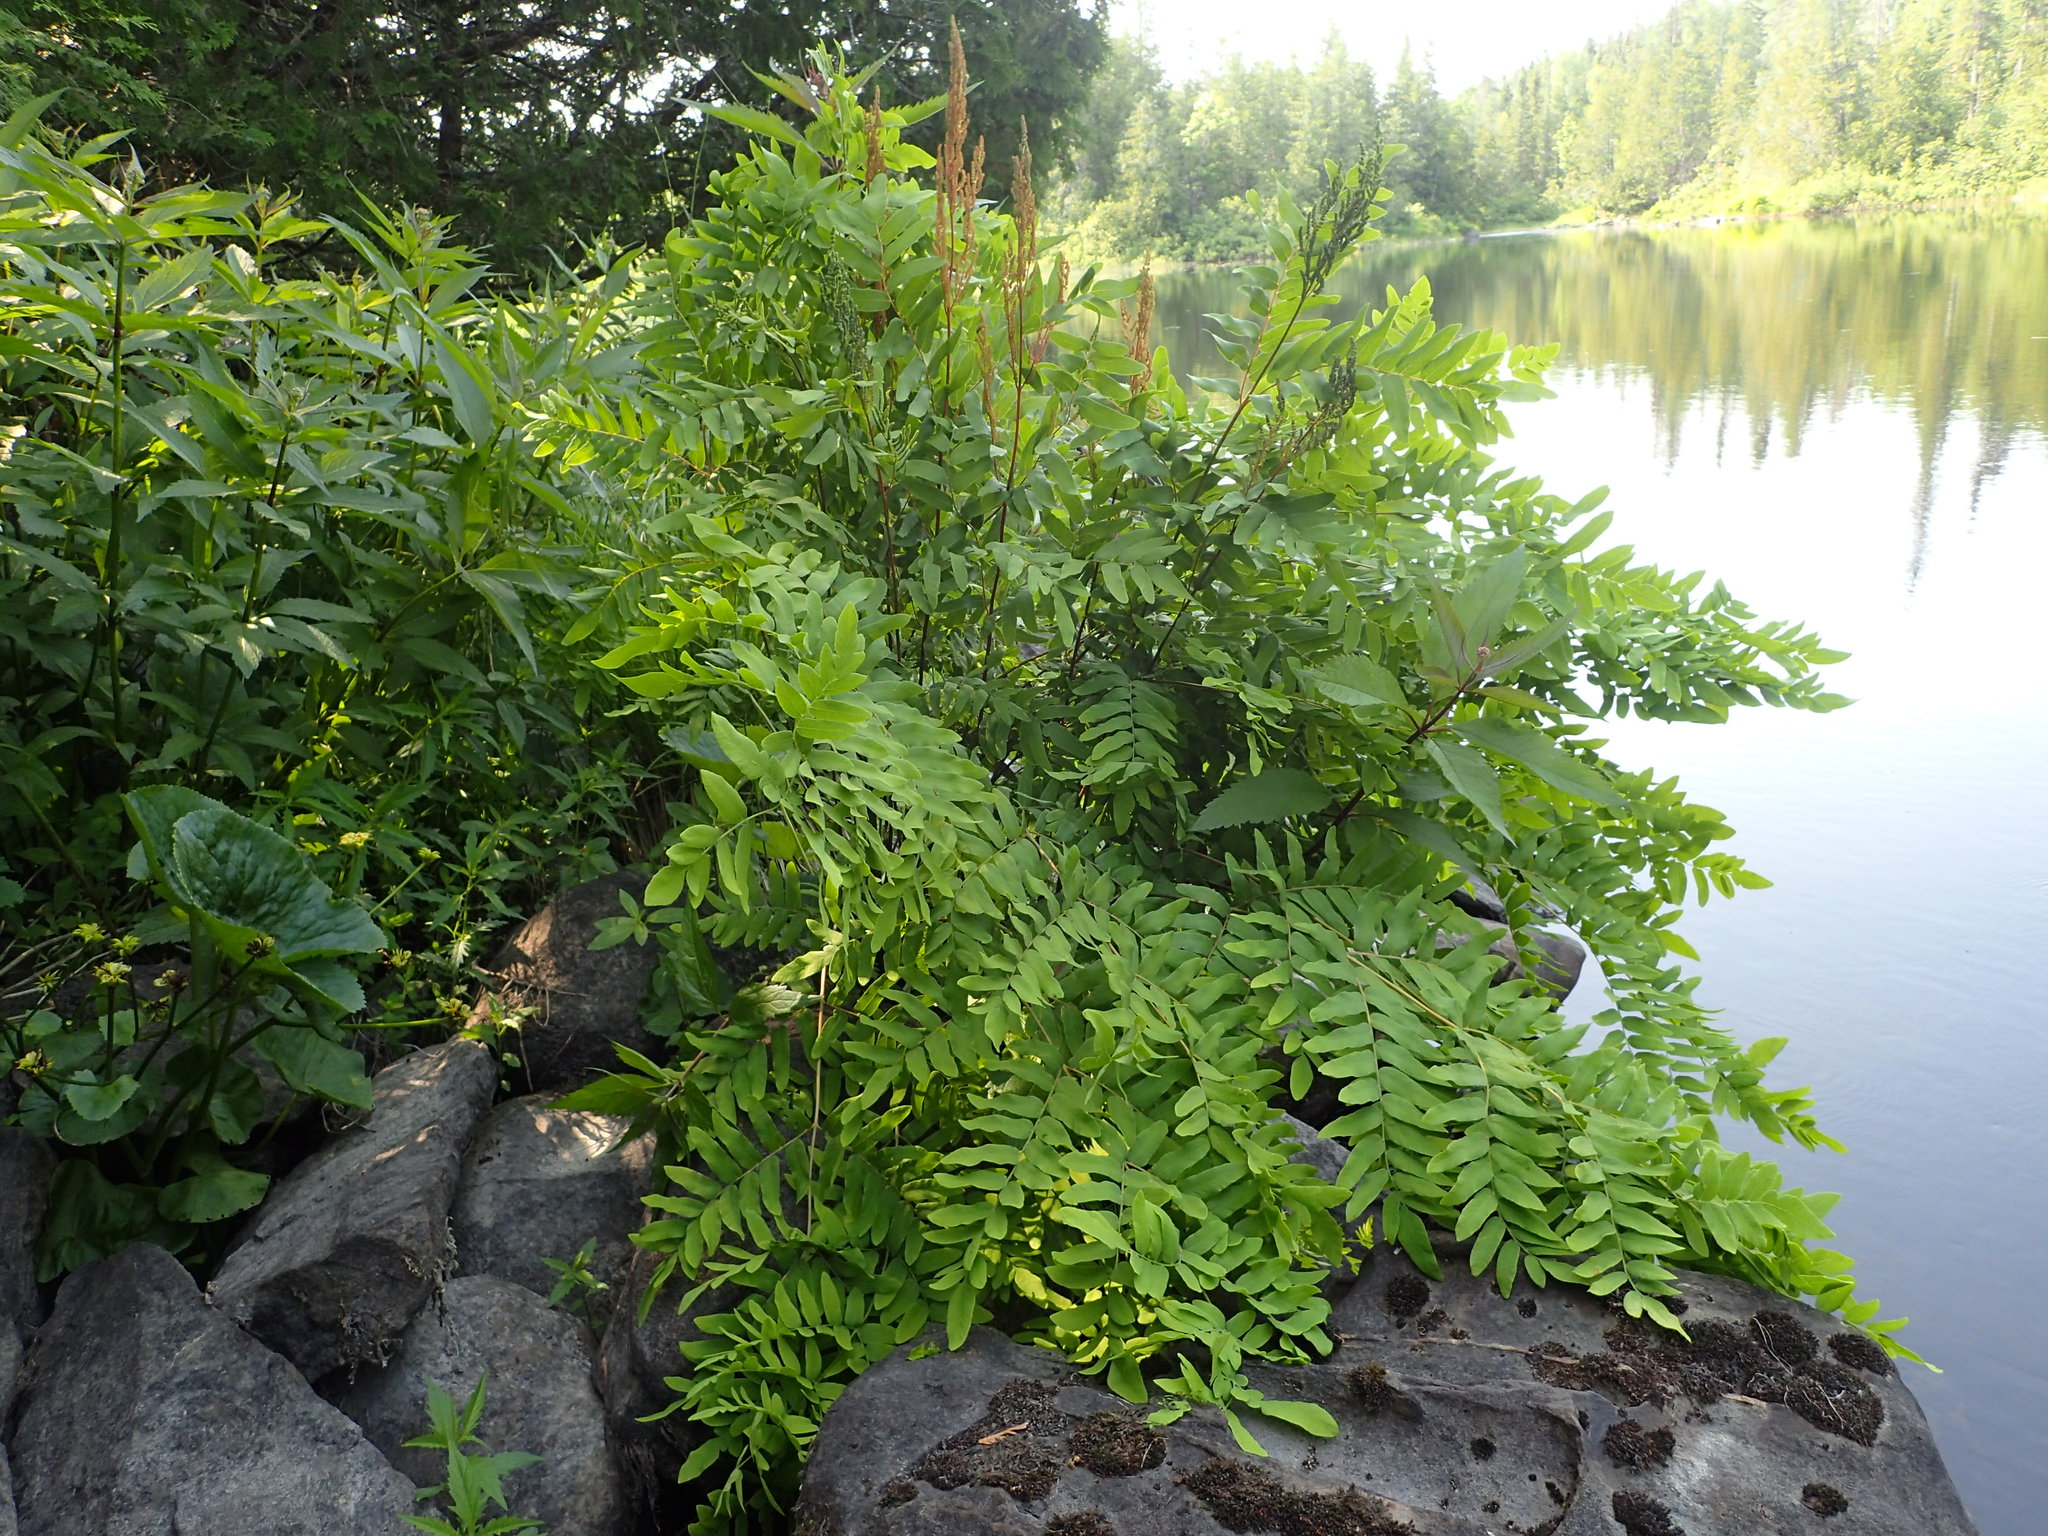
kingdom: Plantae
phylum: Tracheophyta
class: Polypodiopsida
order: Osmundales
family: Osmundaceae
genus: Osmunda
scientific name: Osmunda spectabilis
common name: American royal fern
